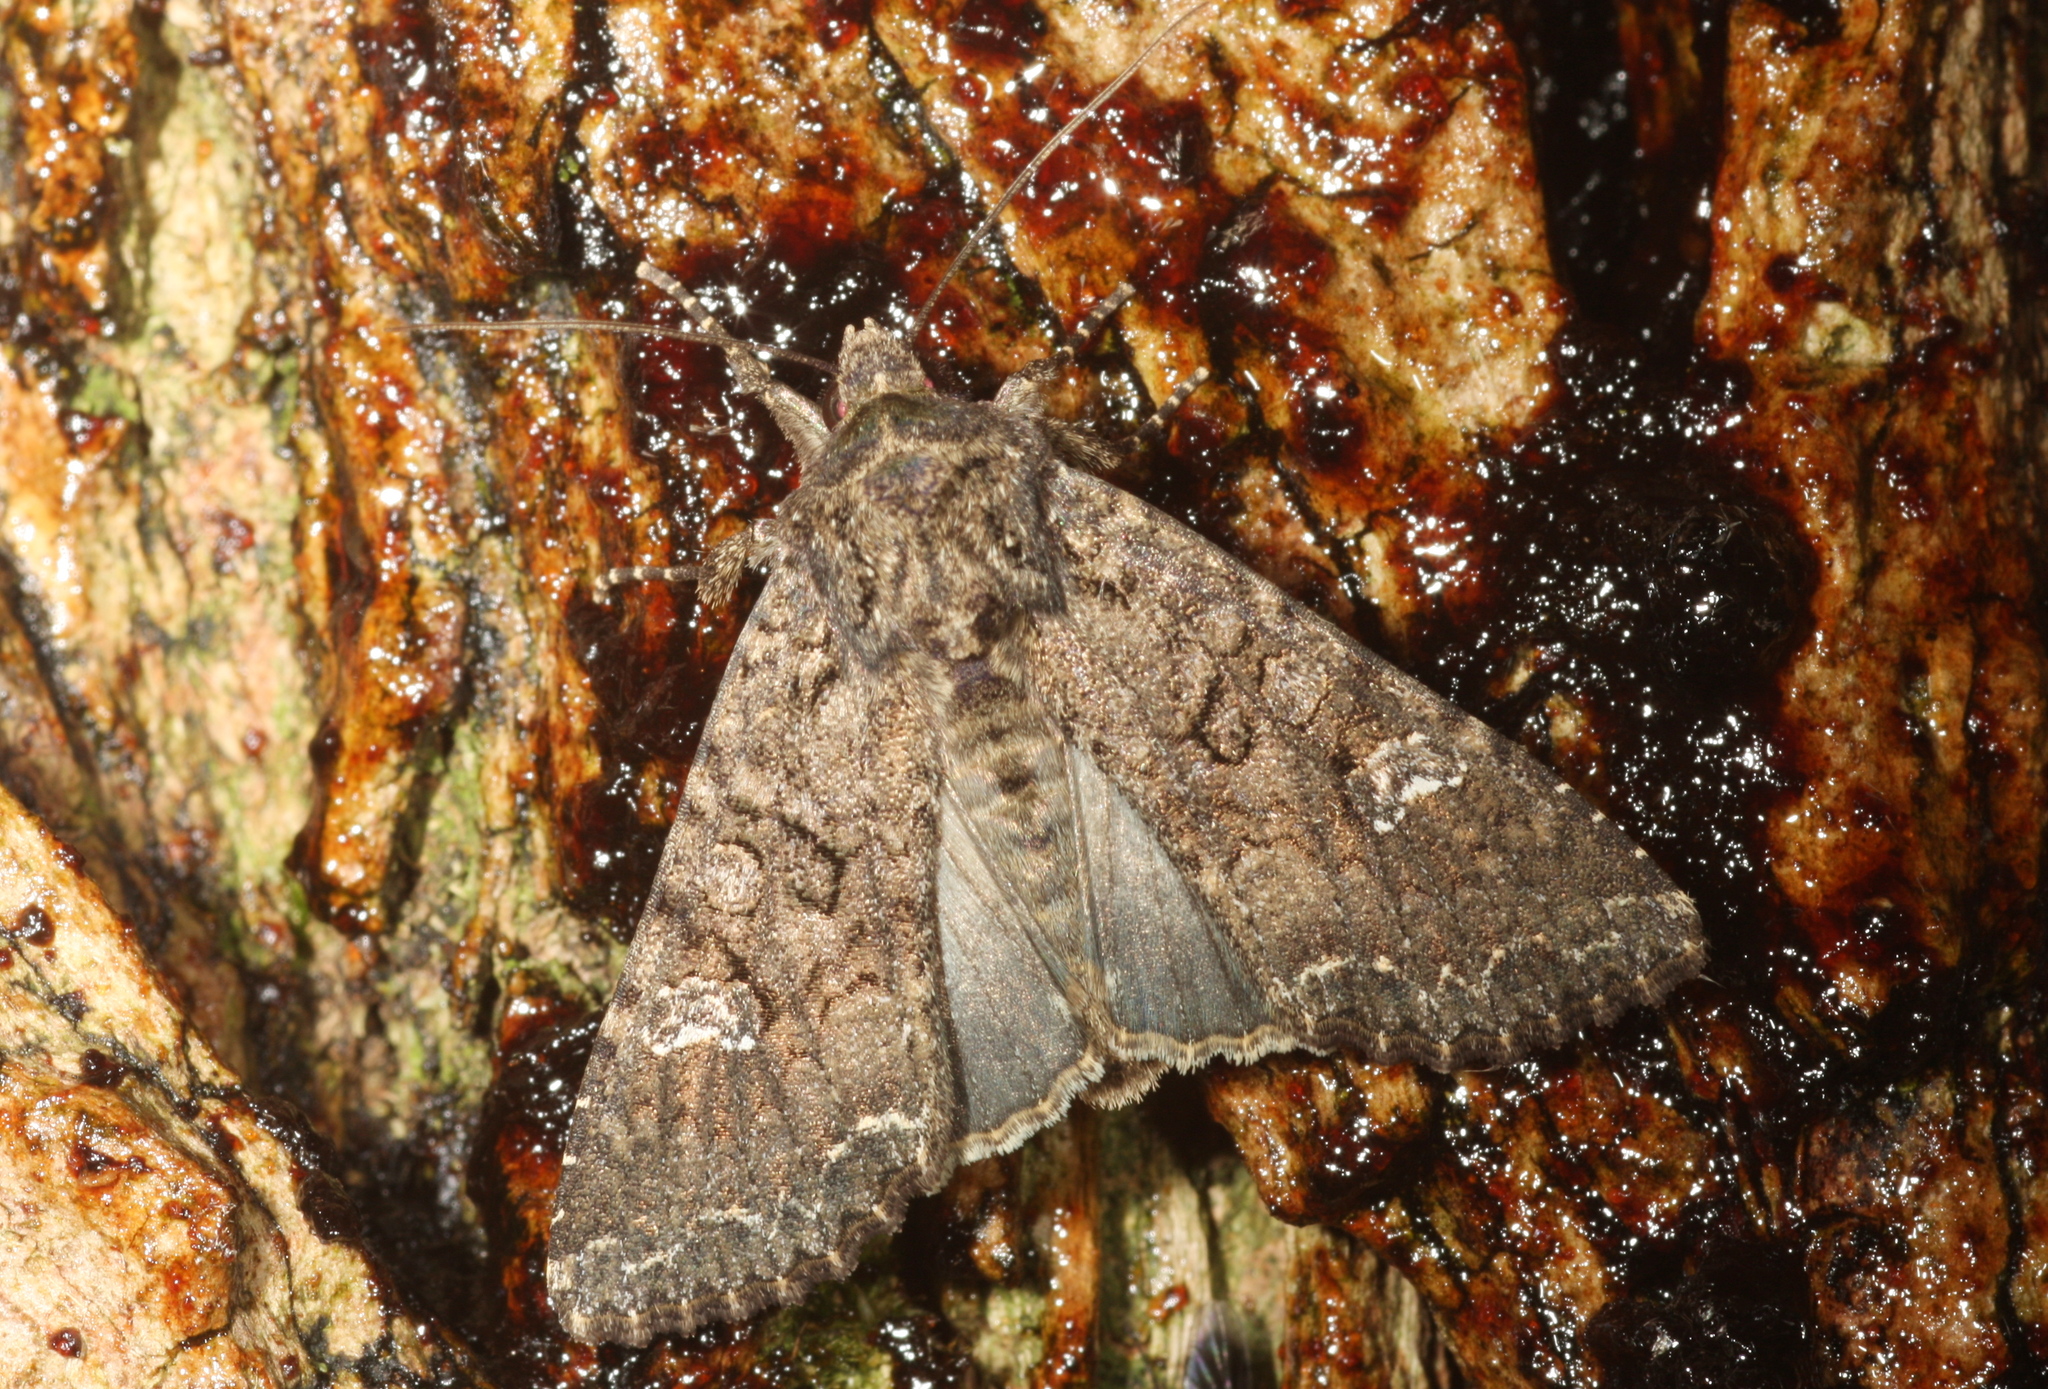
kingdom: Animalia
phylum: Arthropoda
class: Insecta
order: Lepidoptera
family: Noctuidae
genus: Mamestra
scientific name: Mamestra brassicae
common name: Cabbage moth
